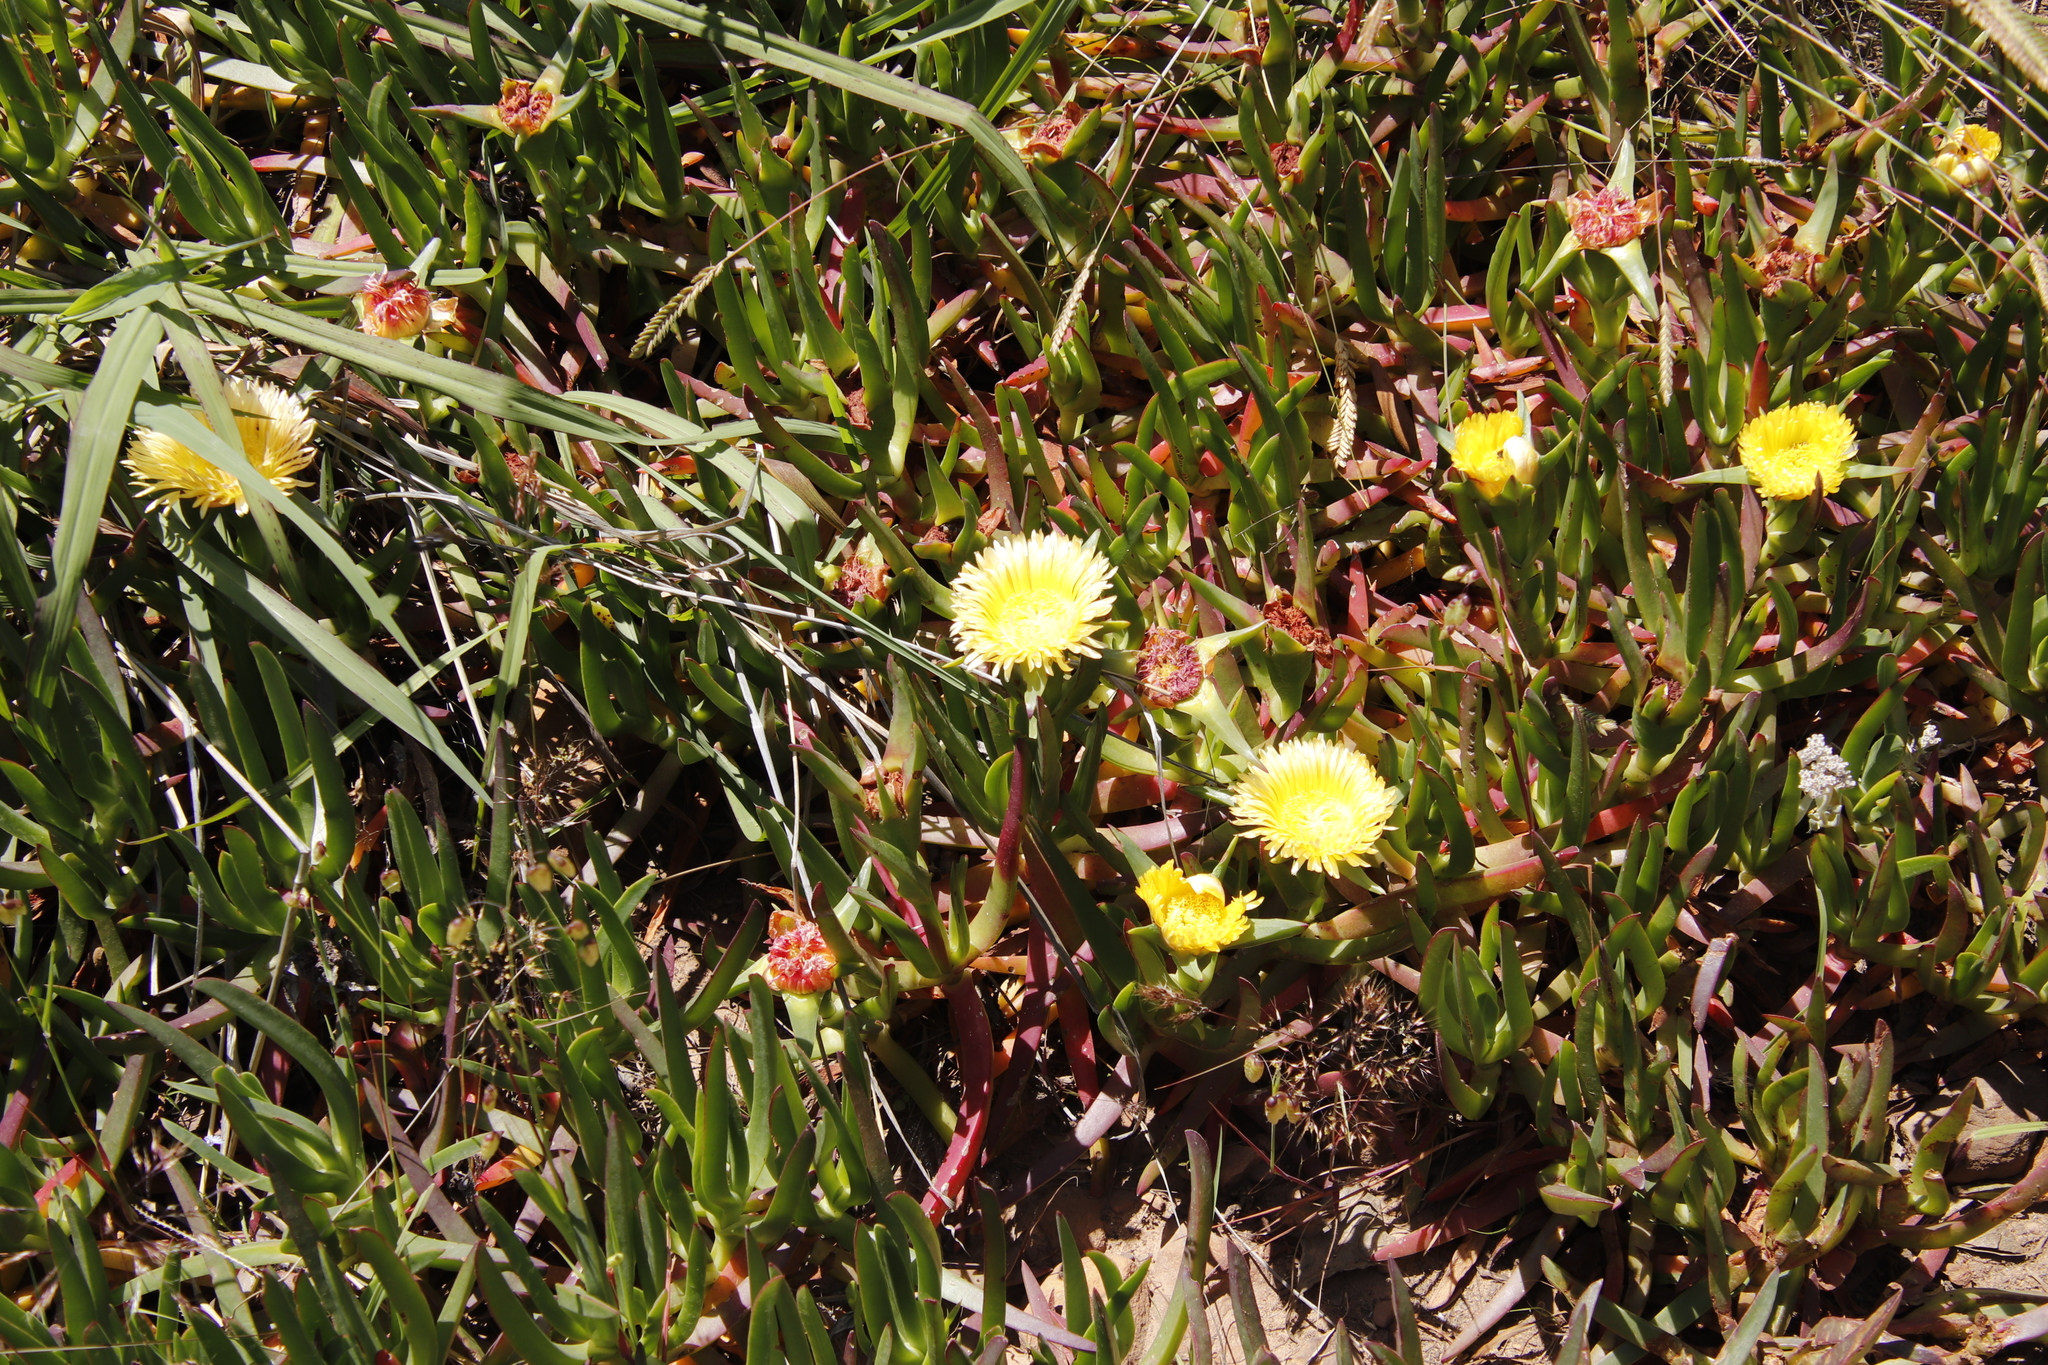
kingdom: Plantae
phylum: Tracheophyta
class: Magnoliopsida
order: Caryophyllales
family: Aizoaceae
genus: Carpobrotus
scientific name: Carpobrotus edulis
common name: Hottentot-fig
